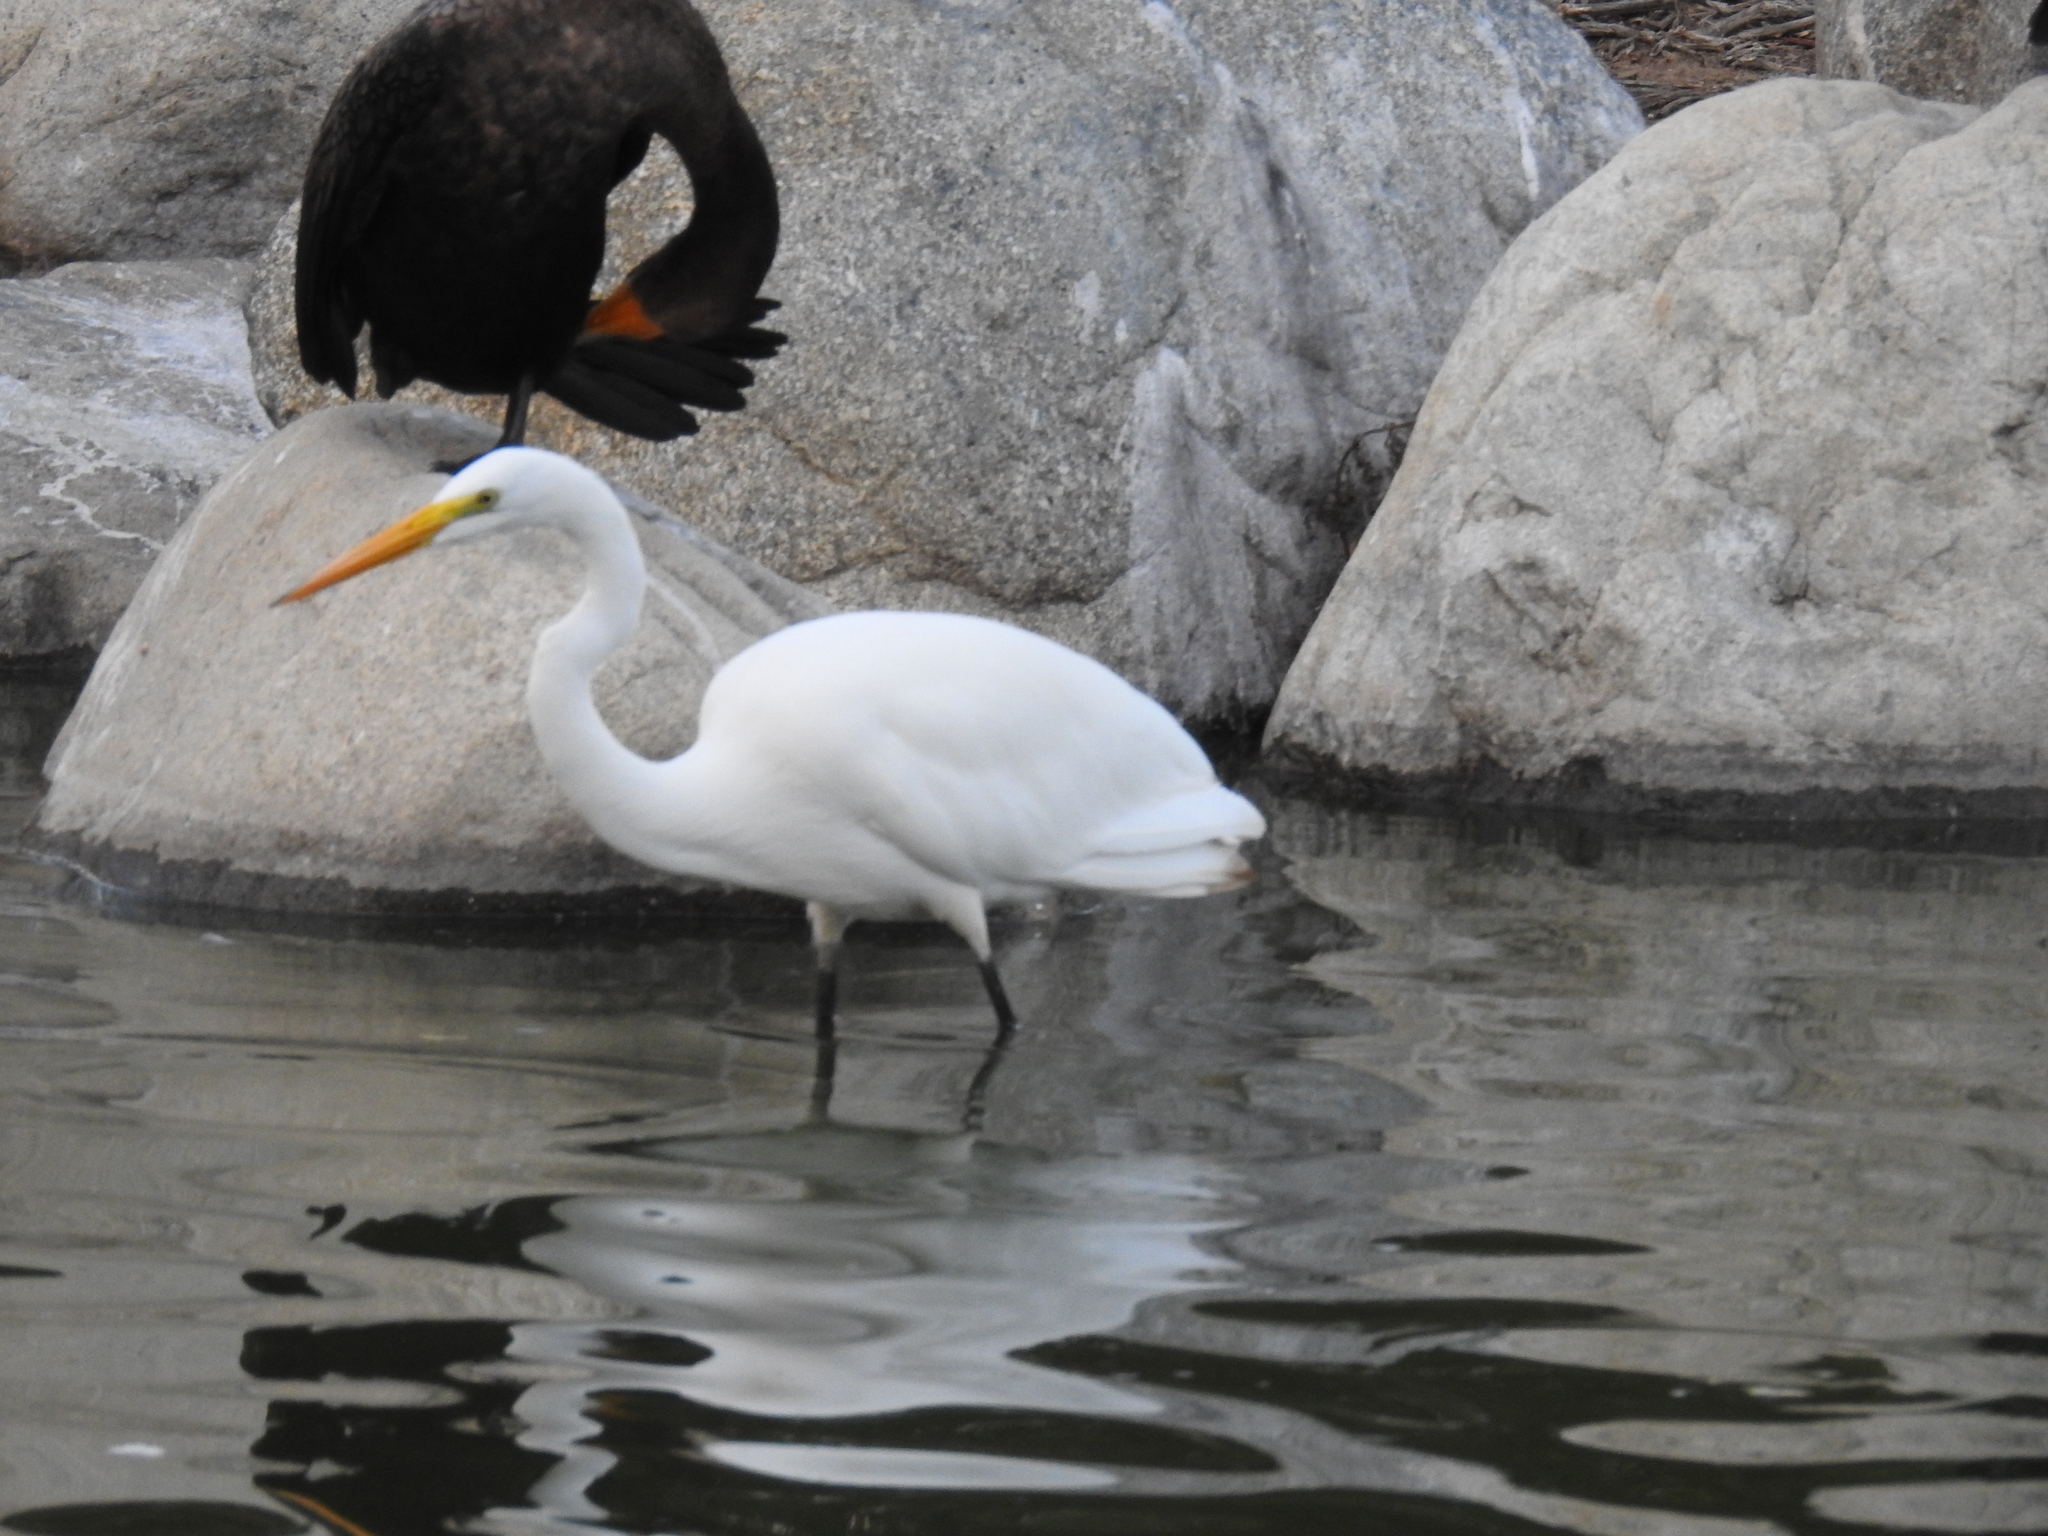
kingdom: Animalia
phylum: Chordata
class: Aves
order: Pelecaniformes
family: Ardeidae
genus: Ardea
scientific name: Ardea alba
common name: Great egret
